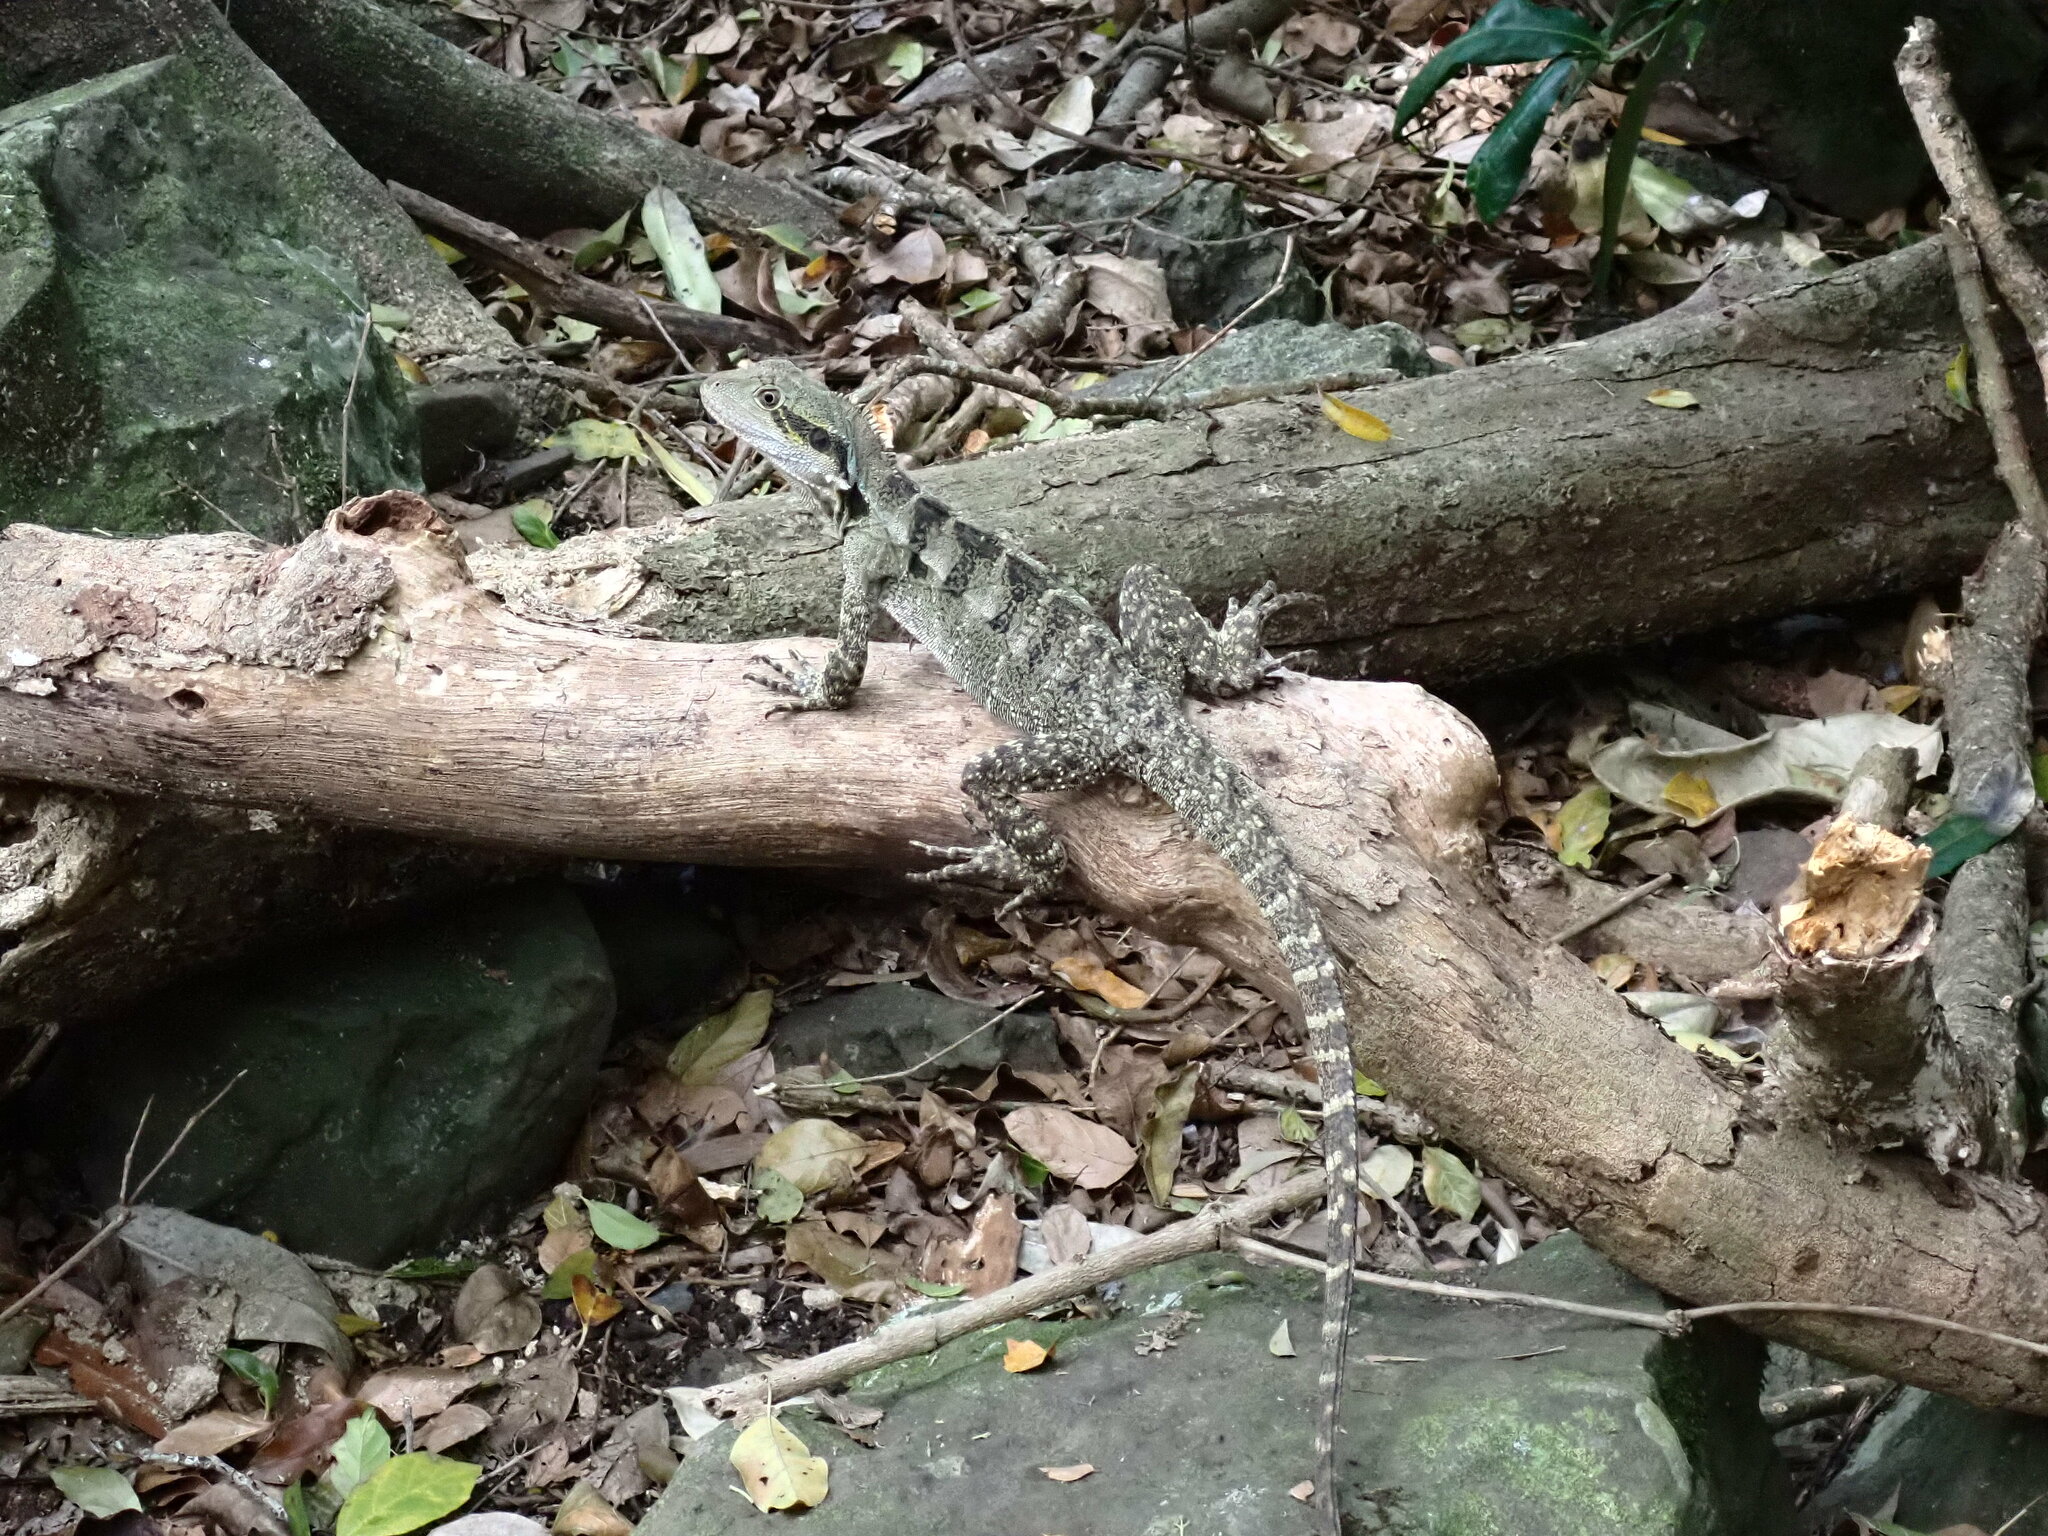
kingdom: Animalia
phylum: Chordata
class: Squamata
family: Agamidae
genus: Intellagama
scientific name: Intellagama lesueurii
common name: Eastern water dragon
